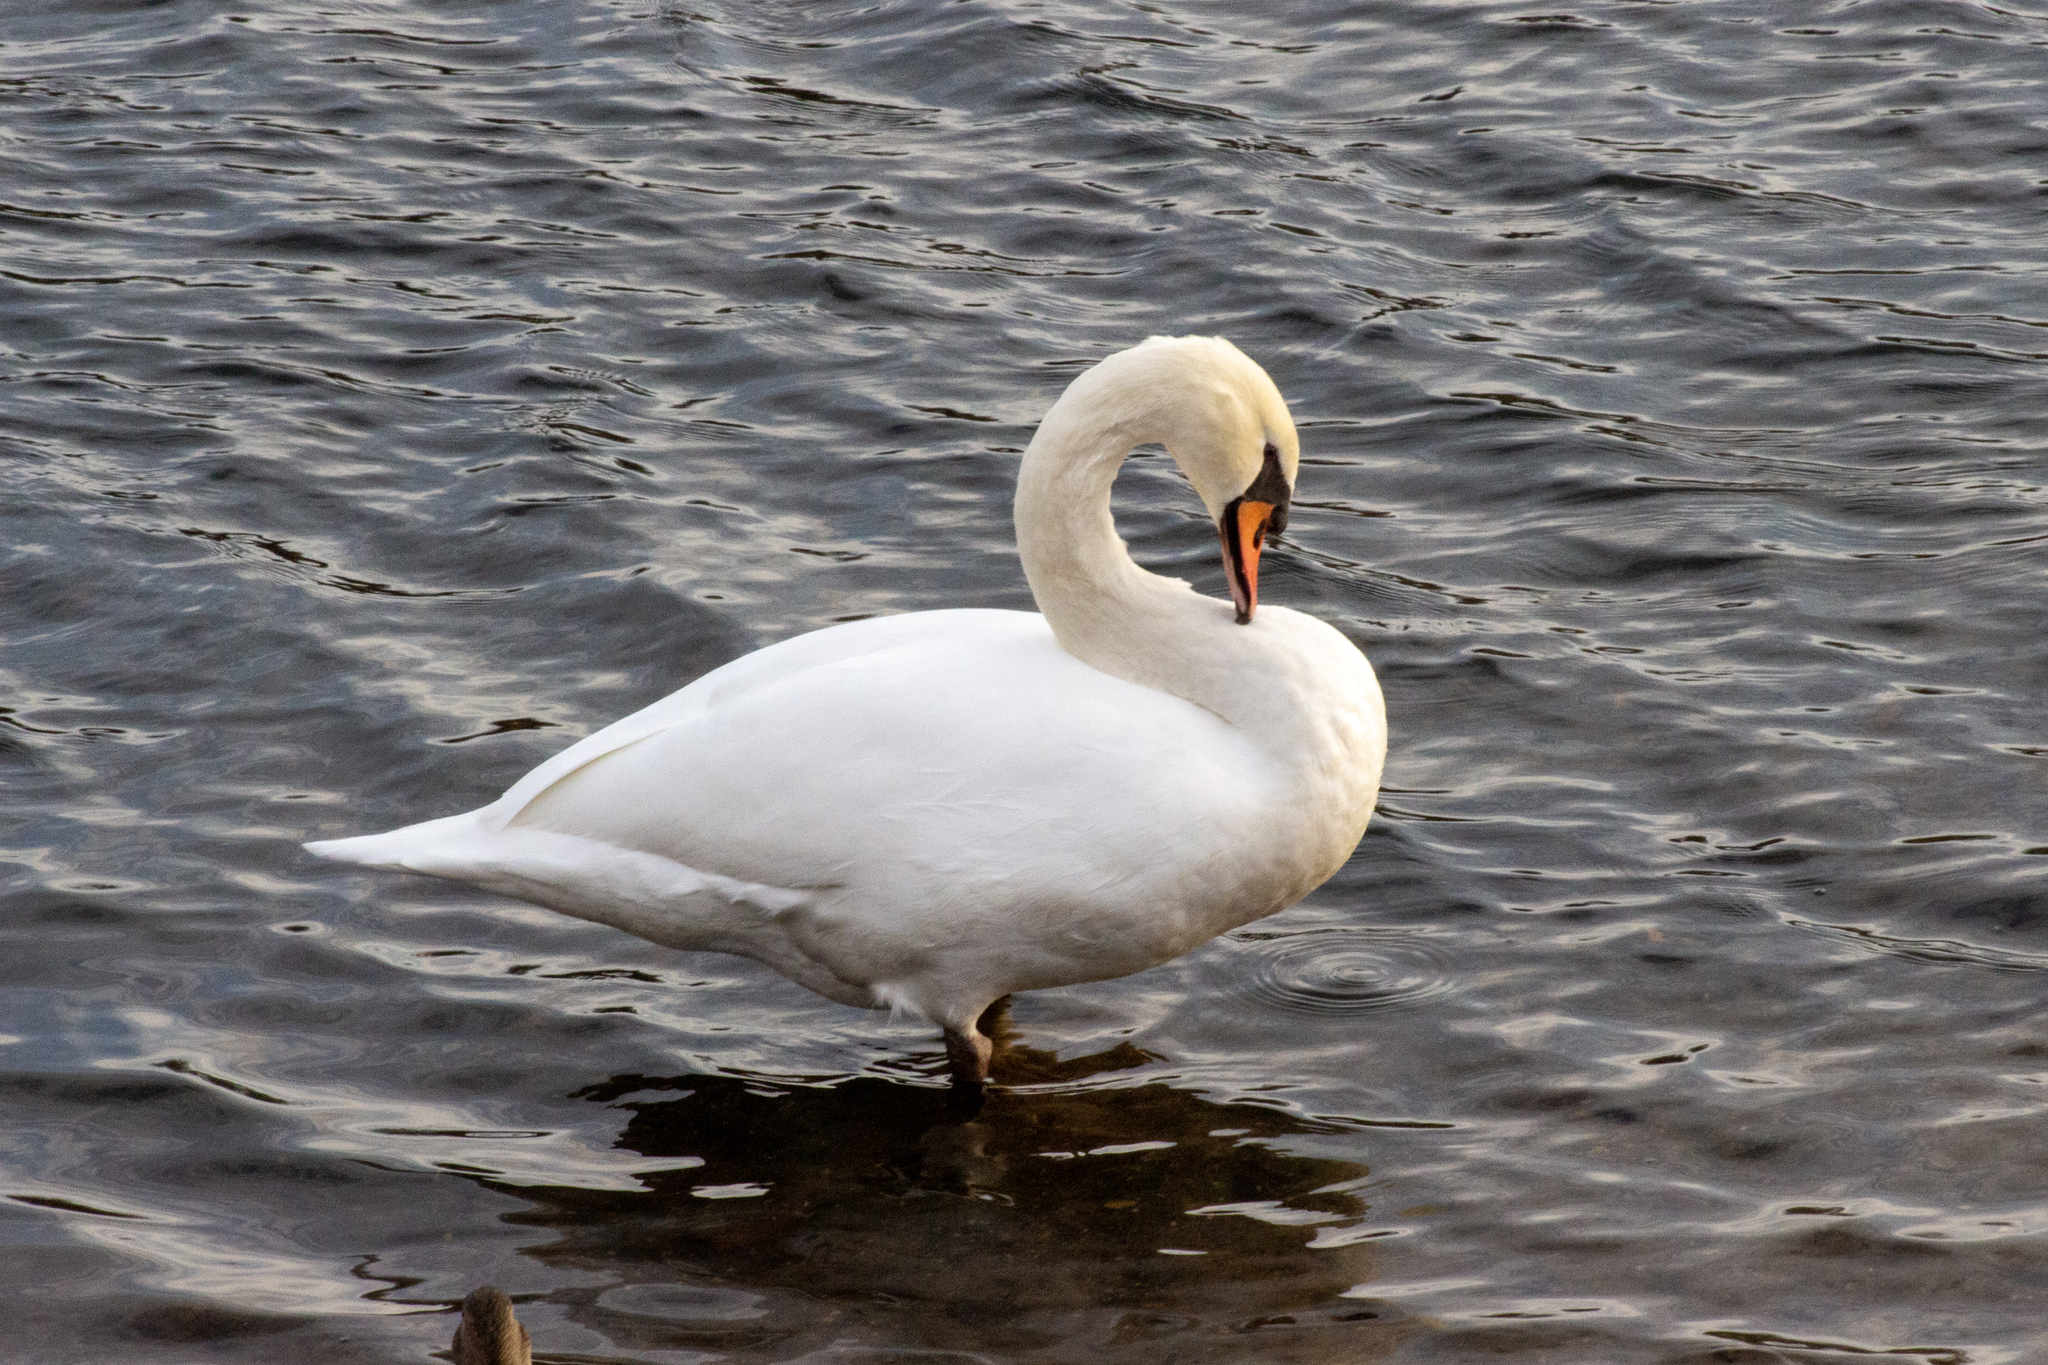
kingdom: Animalia
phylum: Chordata
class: Aves
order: Anseriformes
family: Anatidae
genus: Cygnus
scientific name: Cygnus olor
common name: Mute swan
